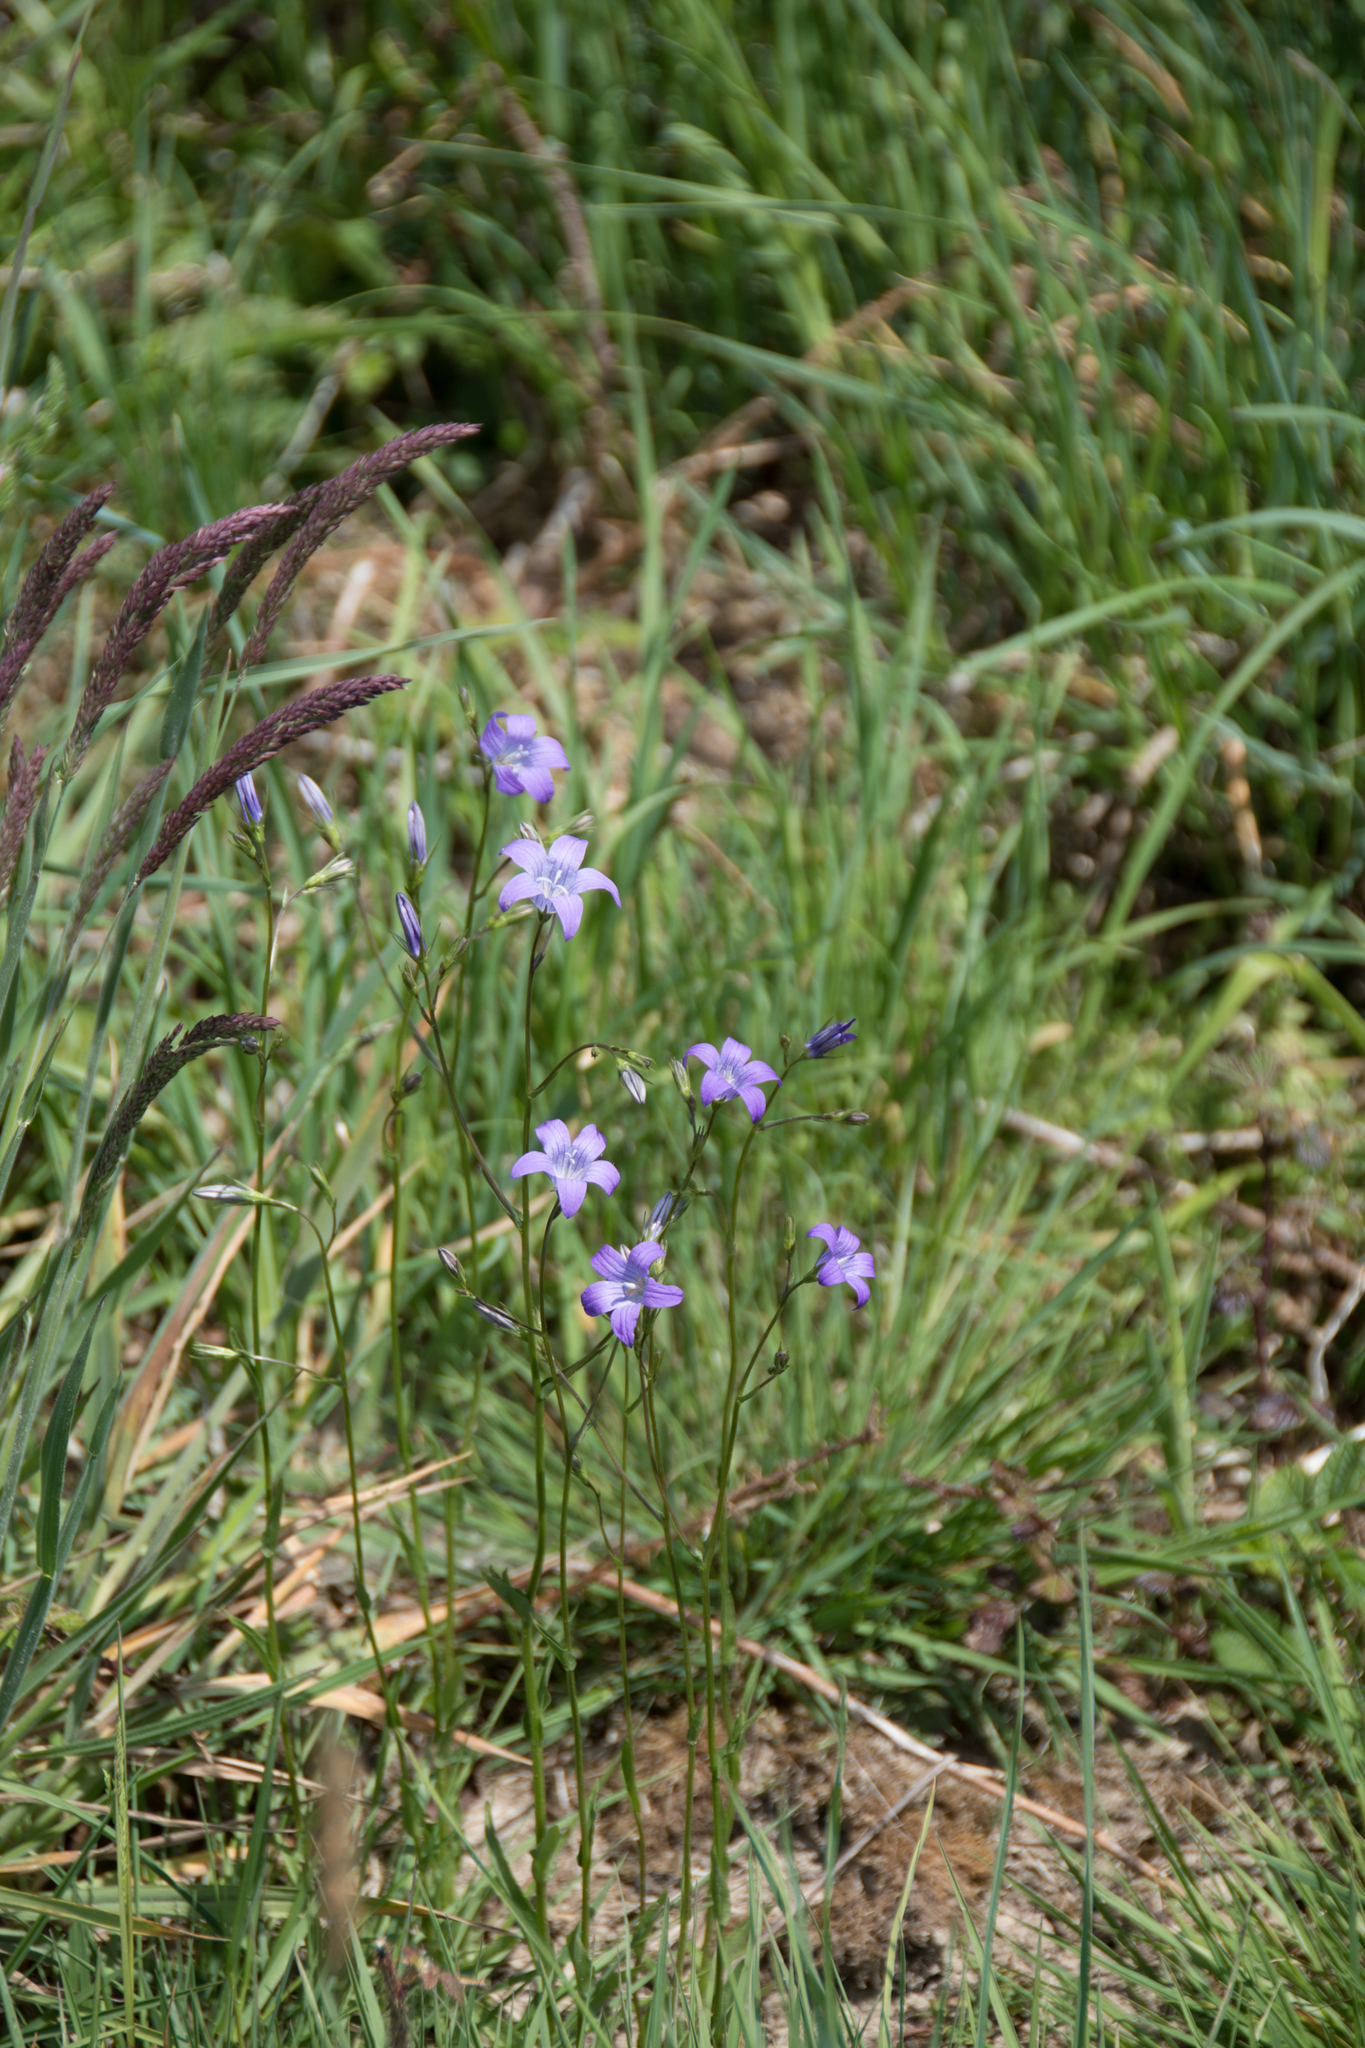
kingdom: Plantae
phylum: Tracheophyta
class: Magnoliopsida
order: Asterales
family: Campanulaceae
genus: Campanula
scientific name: Campanula patula
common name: Spreading bellflower
